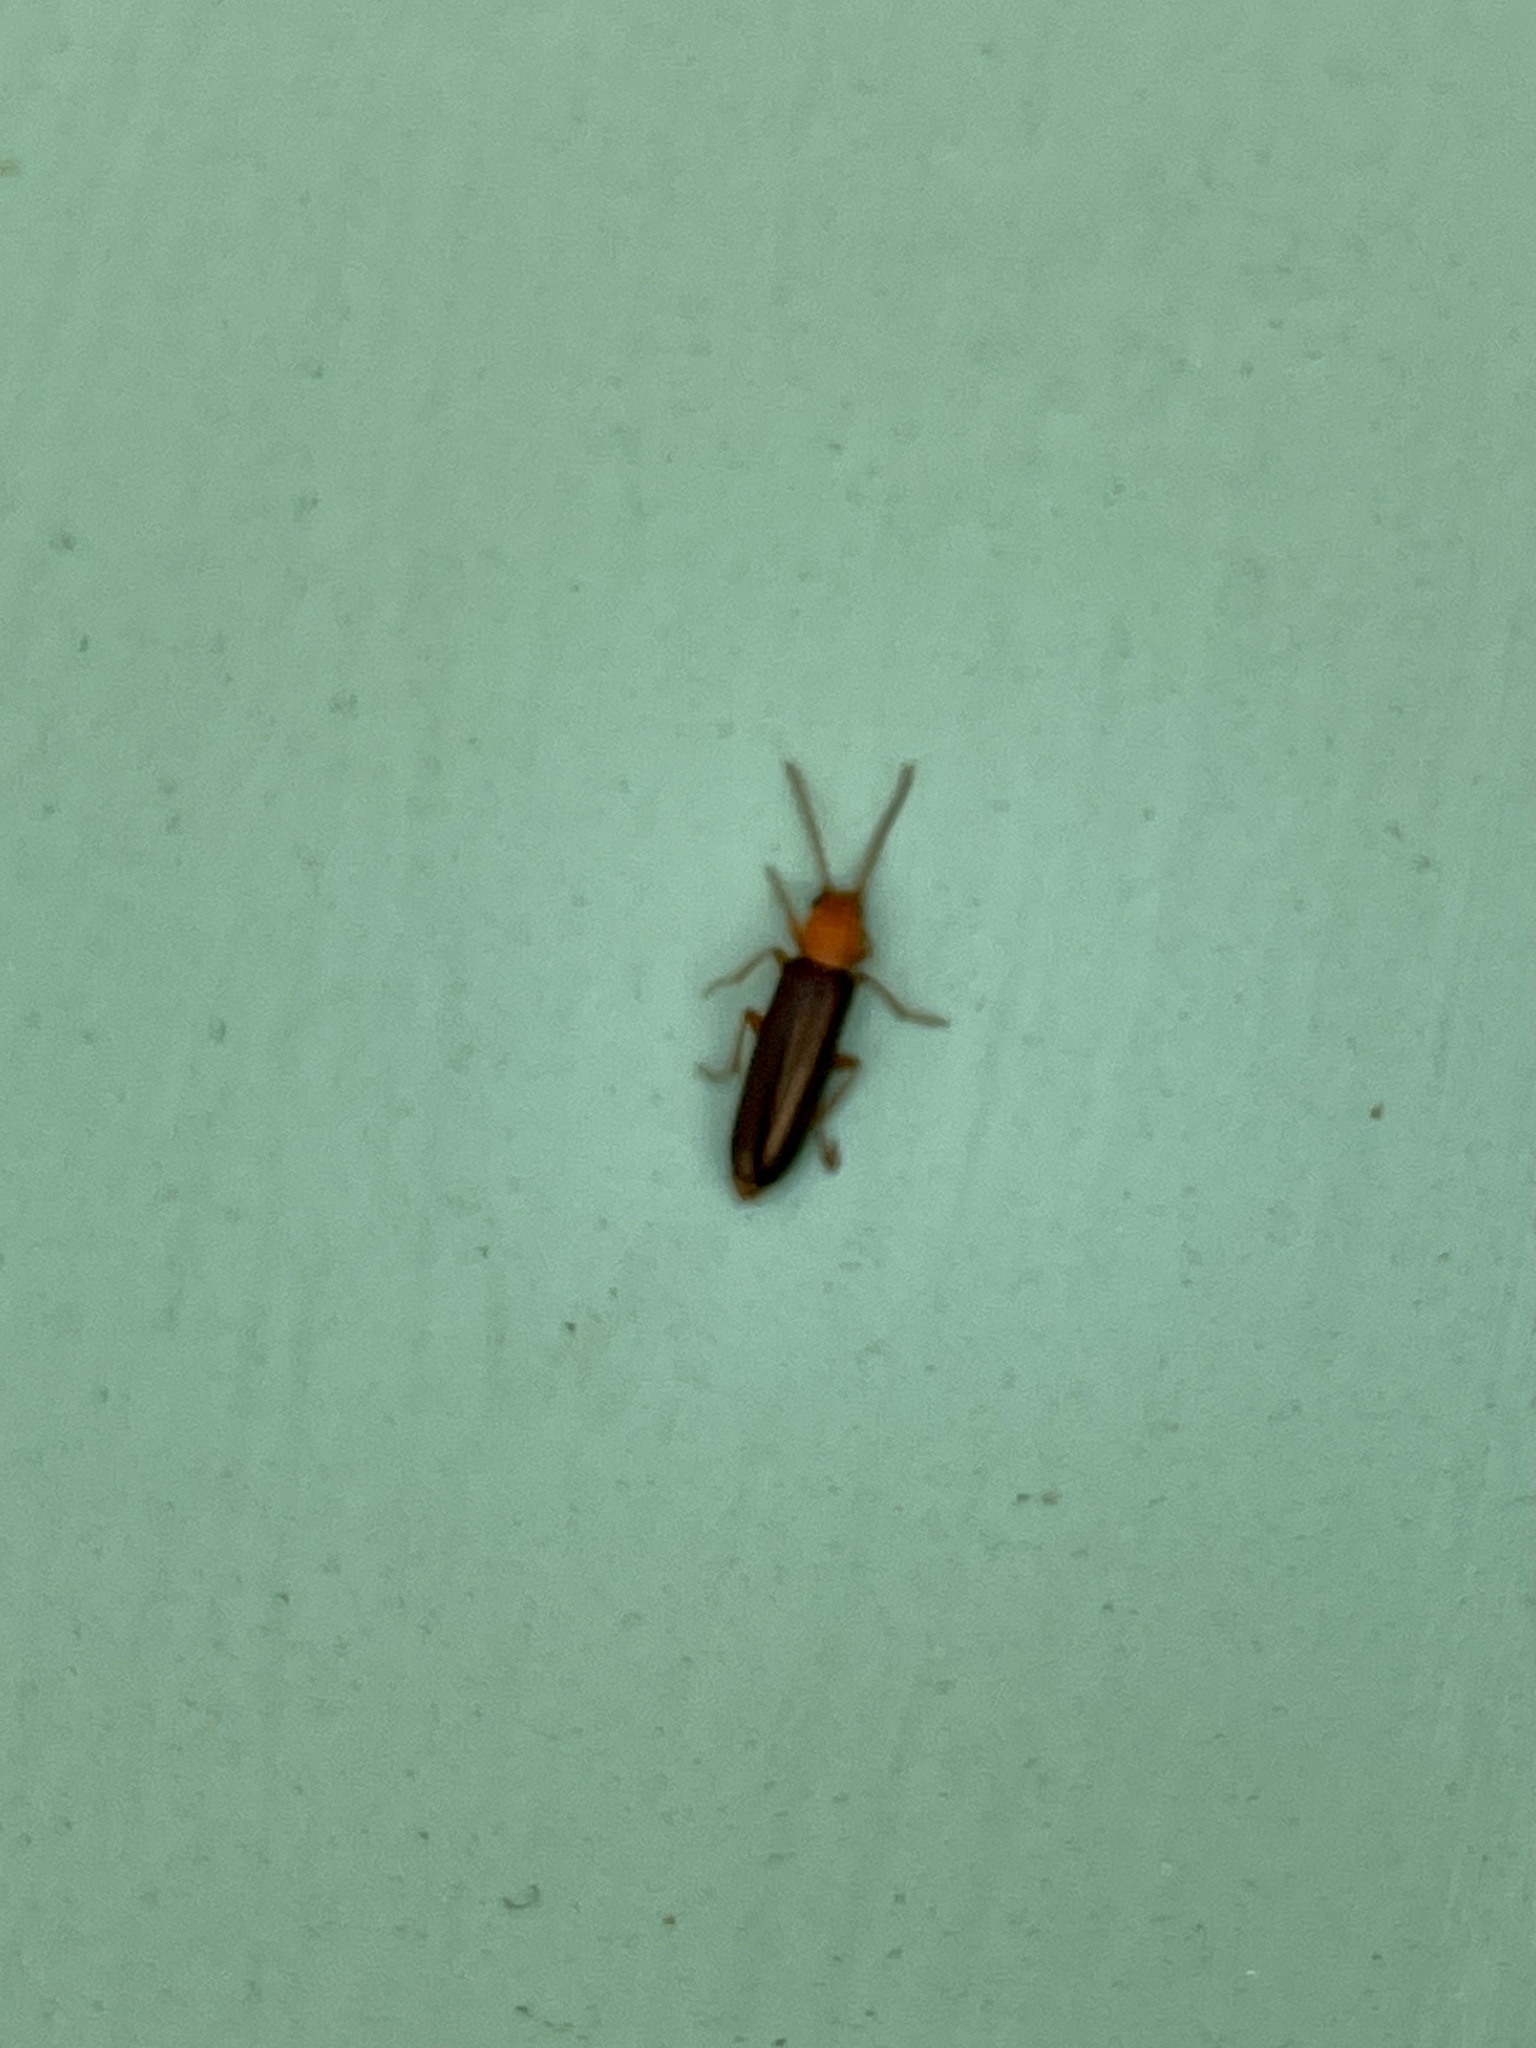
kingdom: Animalia
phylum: Arthropoda
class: Insecta
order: Coleoptera
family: Oedemeridae
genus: Xanthochroina
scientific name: Xanthochroina bicolor
